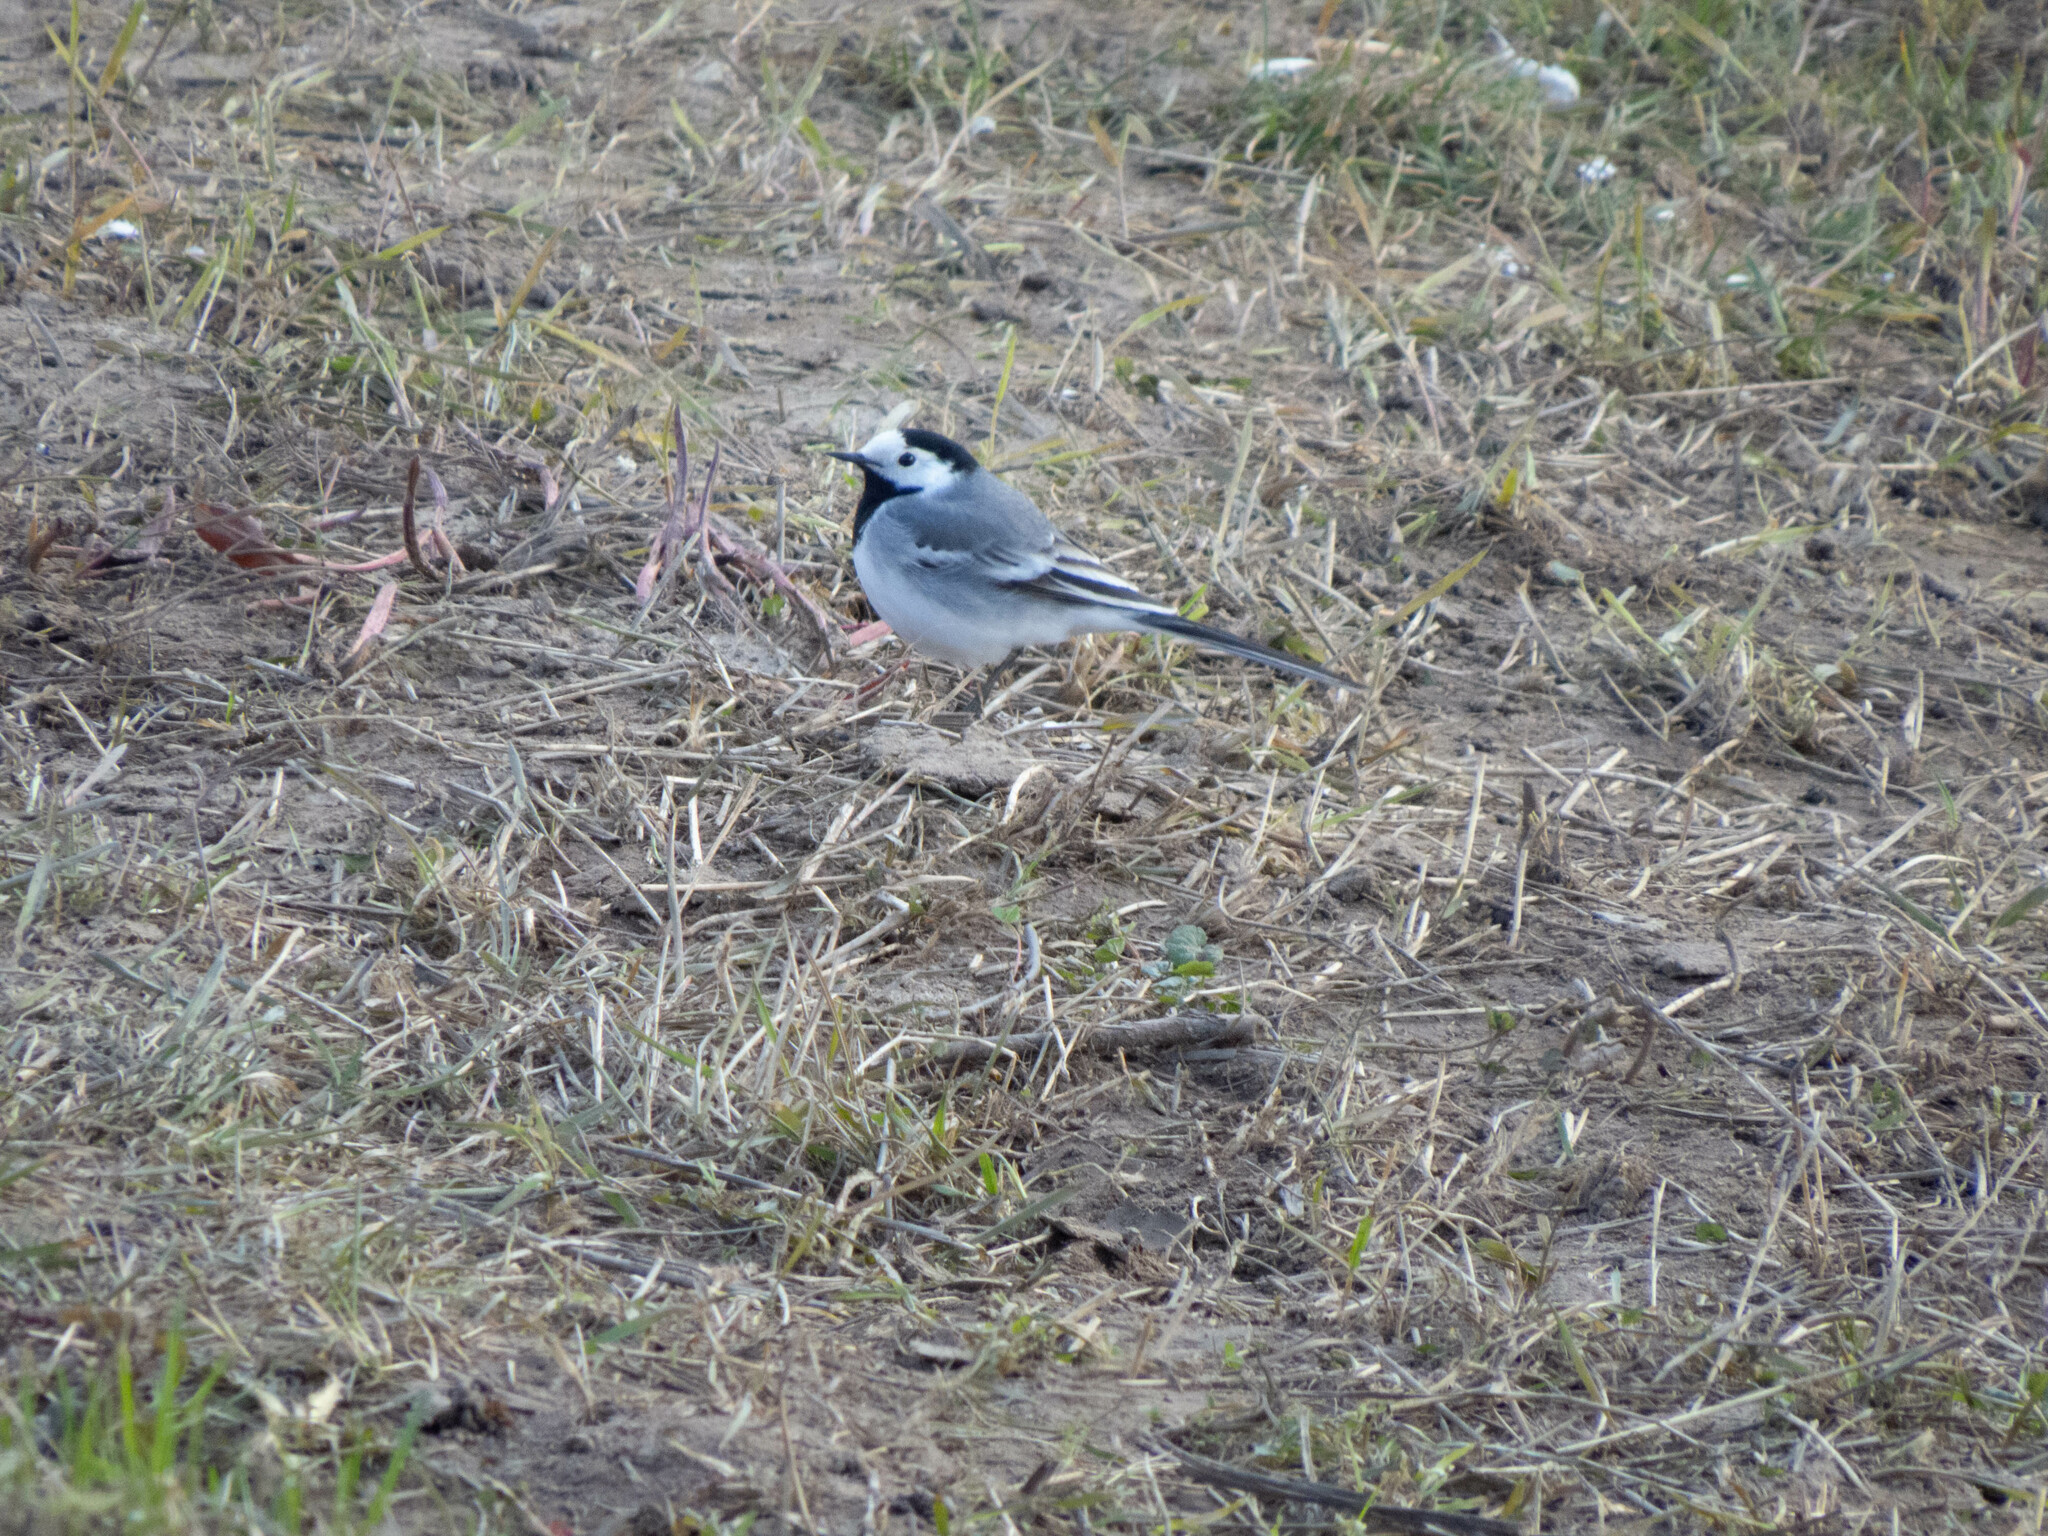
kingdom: Animalia
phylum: Chordata
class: Aves
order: Passeriformes
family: Motacillidae
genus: Motacilla
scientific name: Motacilla alba
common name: White wagtail
